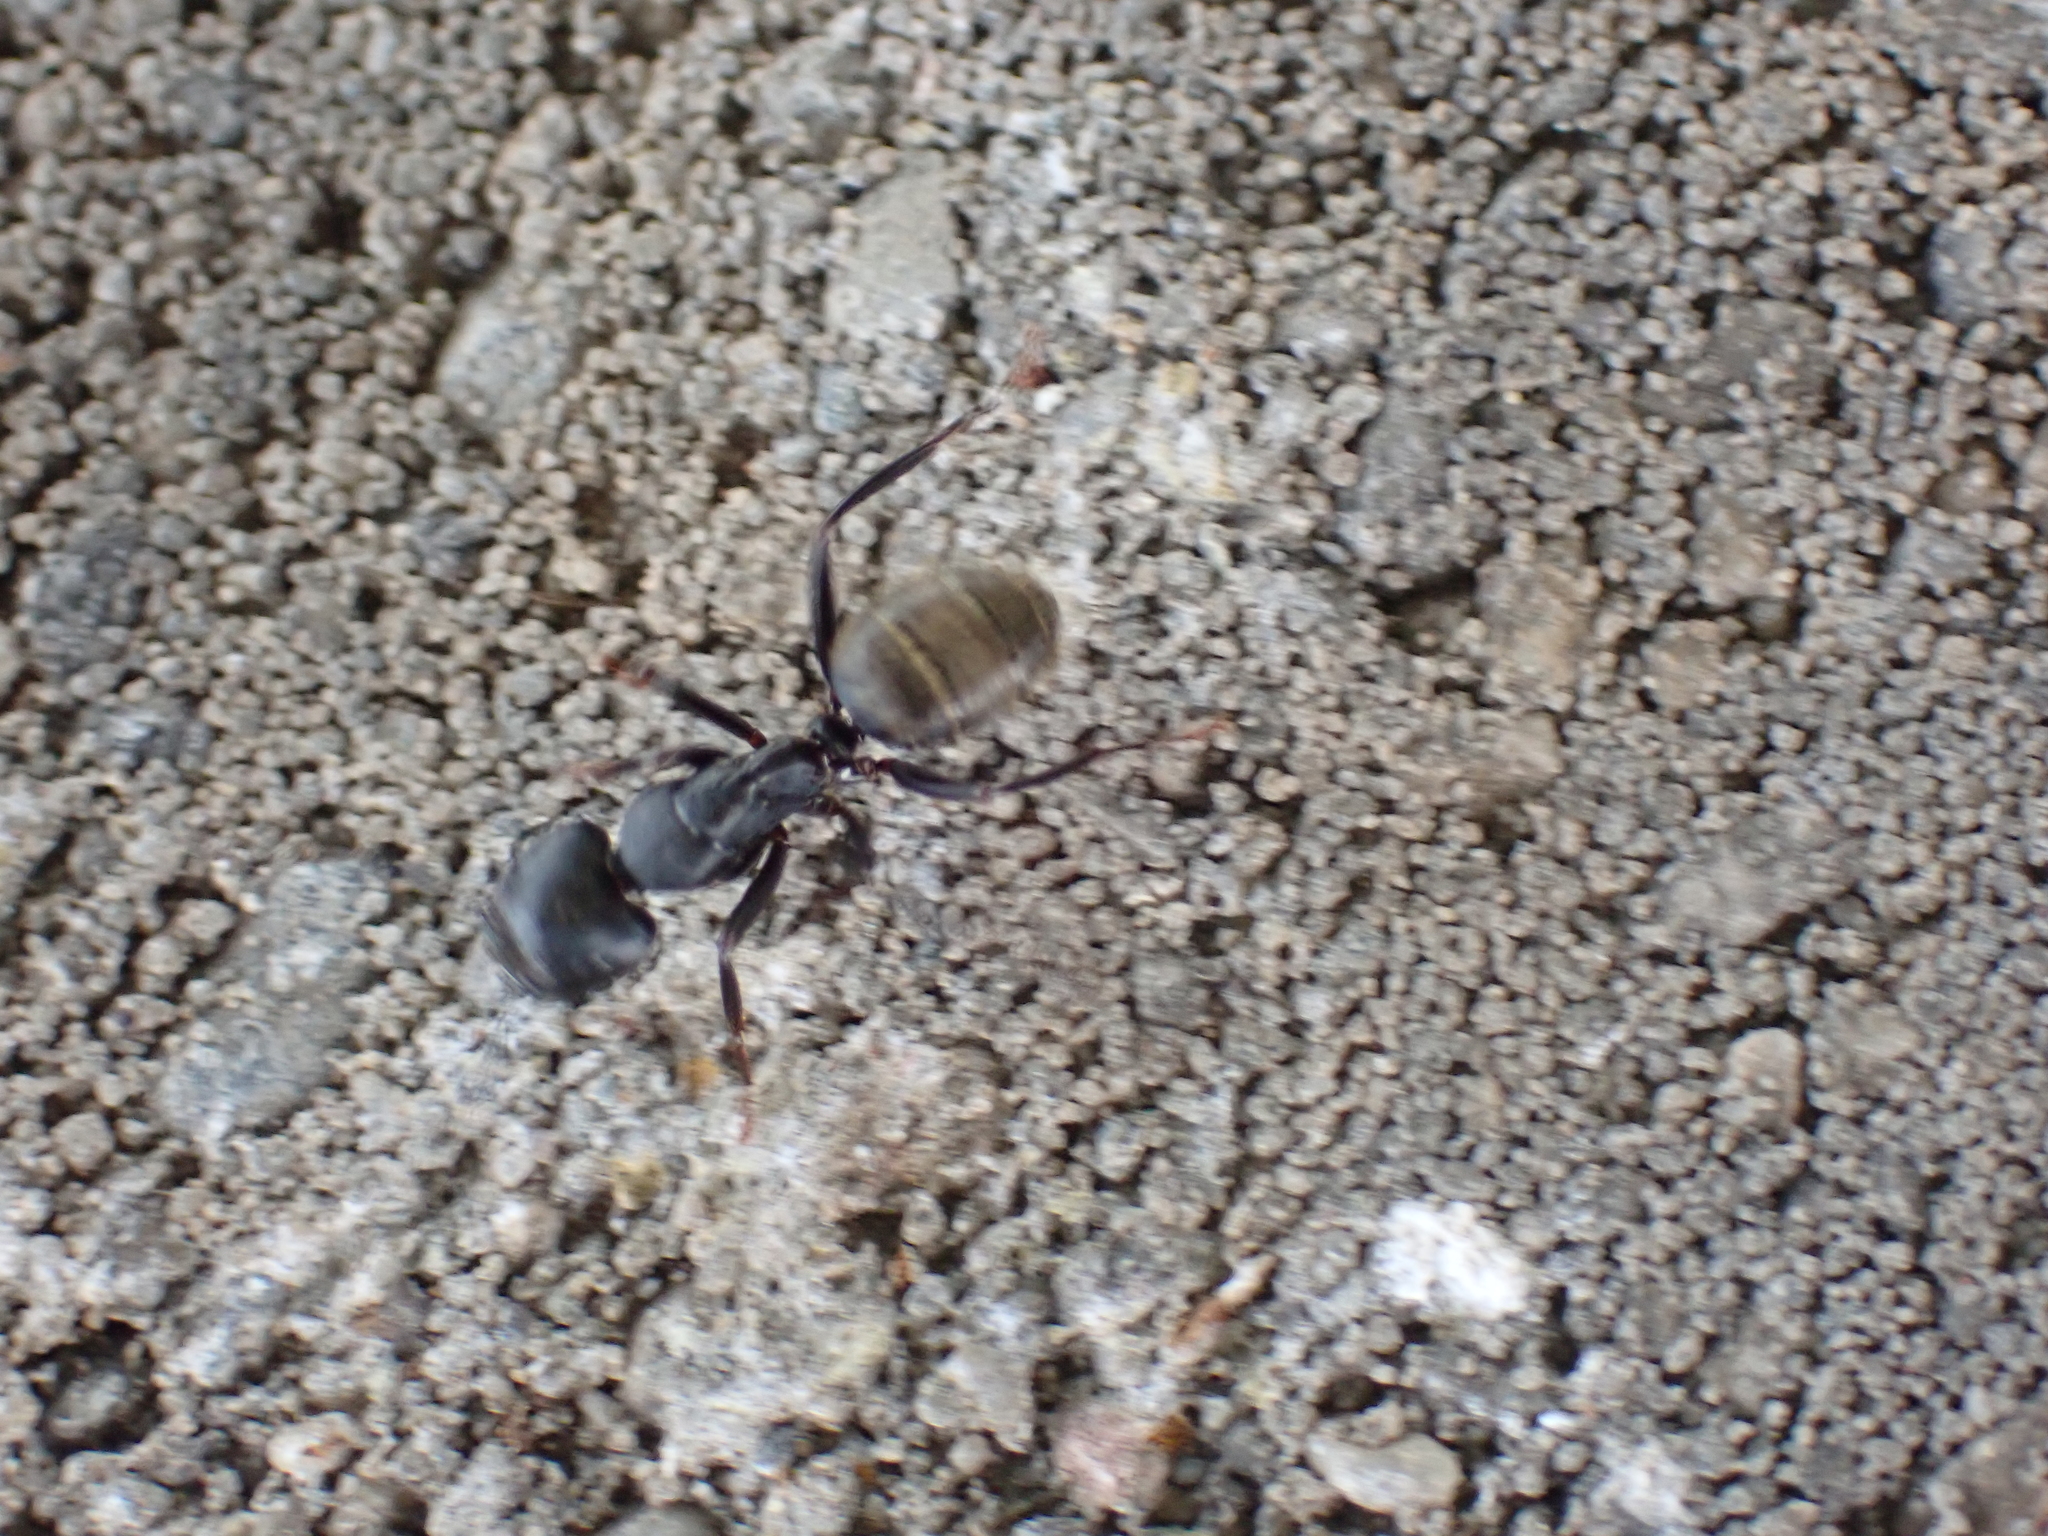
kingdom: Animalia
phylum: Arthropoda
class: Insecta
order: Hymenoptera
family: Formicidae
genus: Camponotus
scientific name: Camponotus pennsylvanicus
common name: Black carpenter ant
